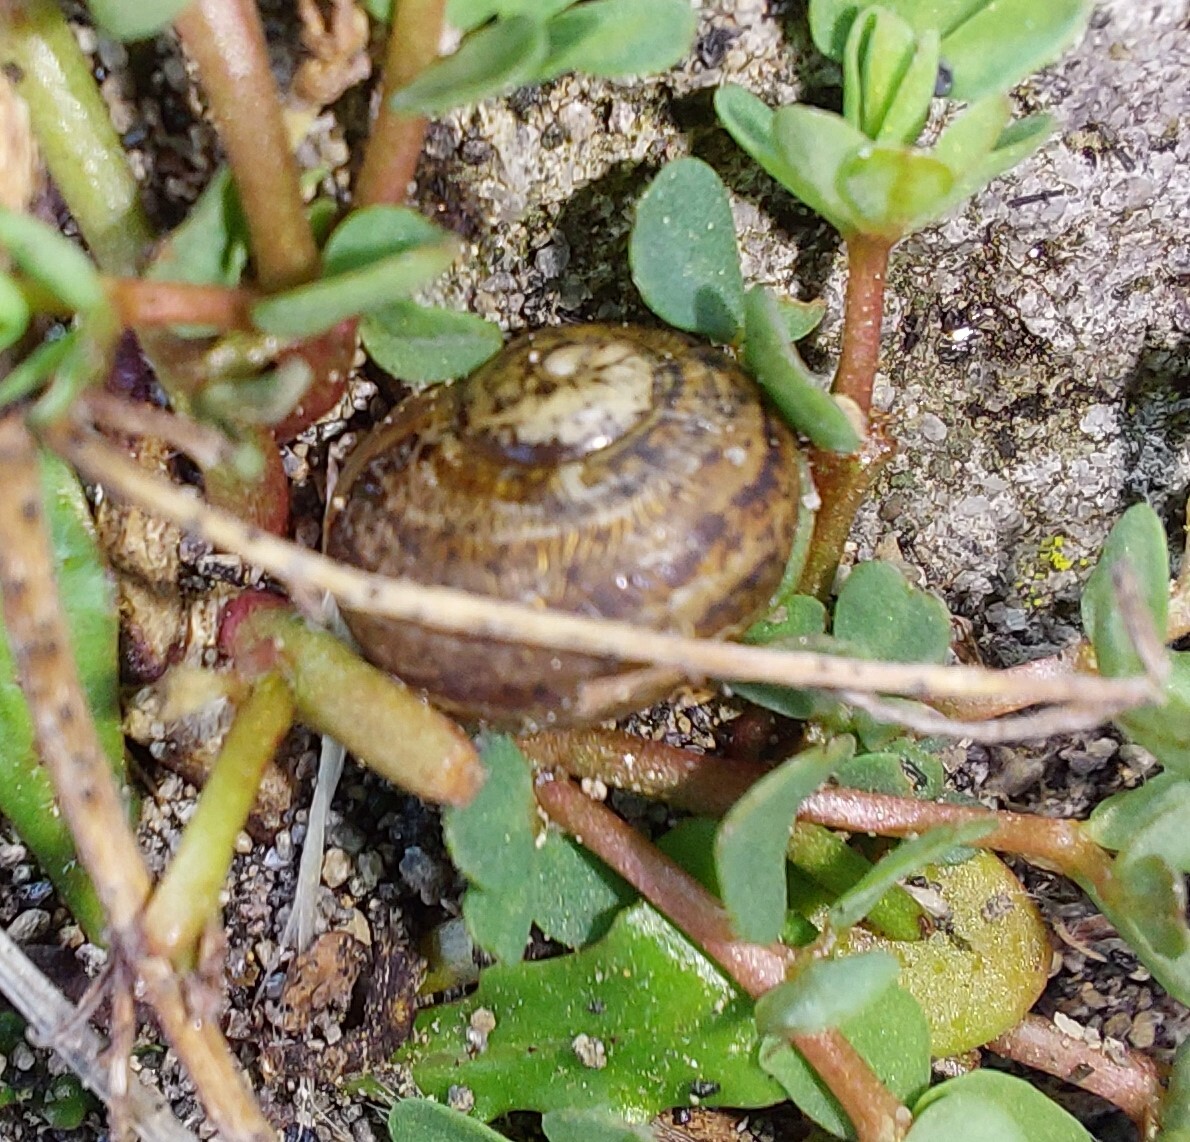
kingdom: Animalia
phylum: Mollusca
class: Gastropoda
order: Stylommatophora
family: Helicidae
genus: Cornu
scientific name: Cornu aspersum
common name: Brown garden snail
